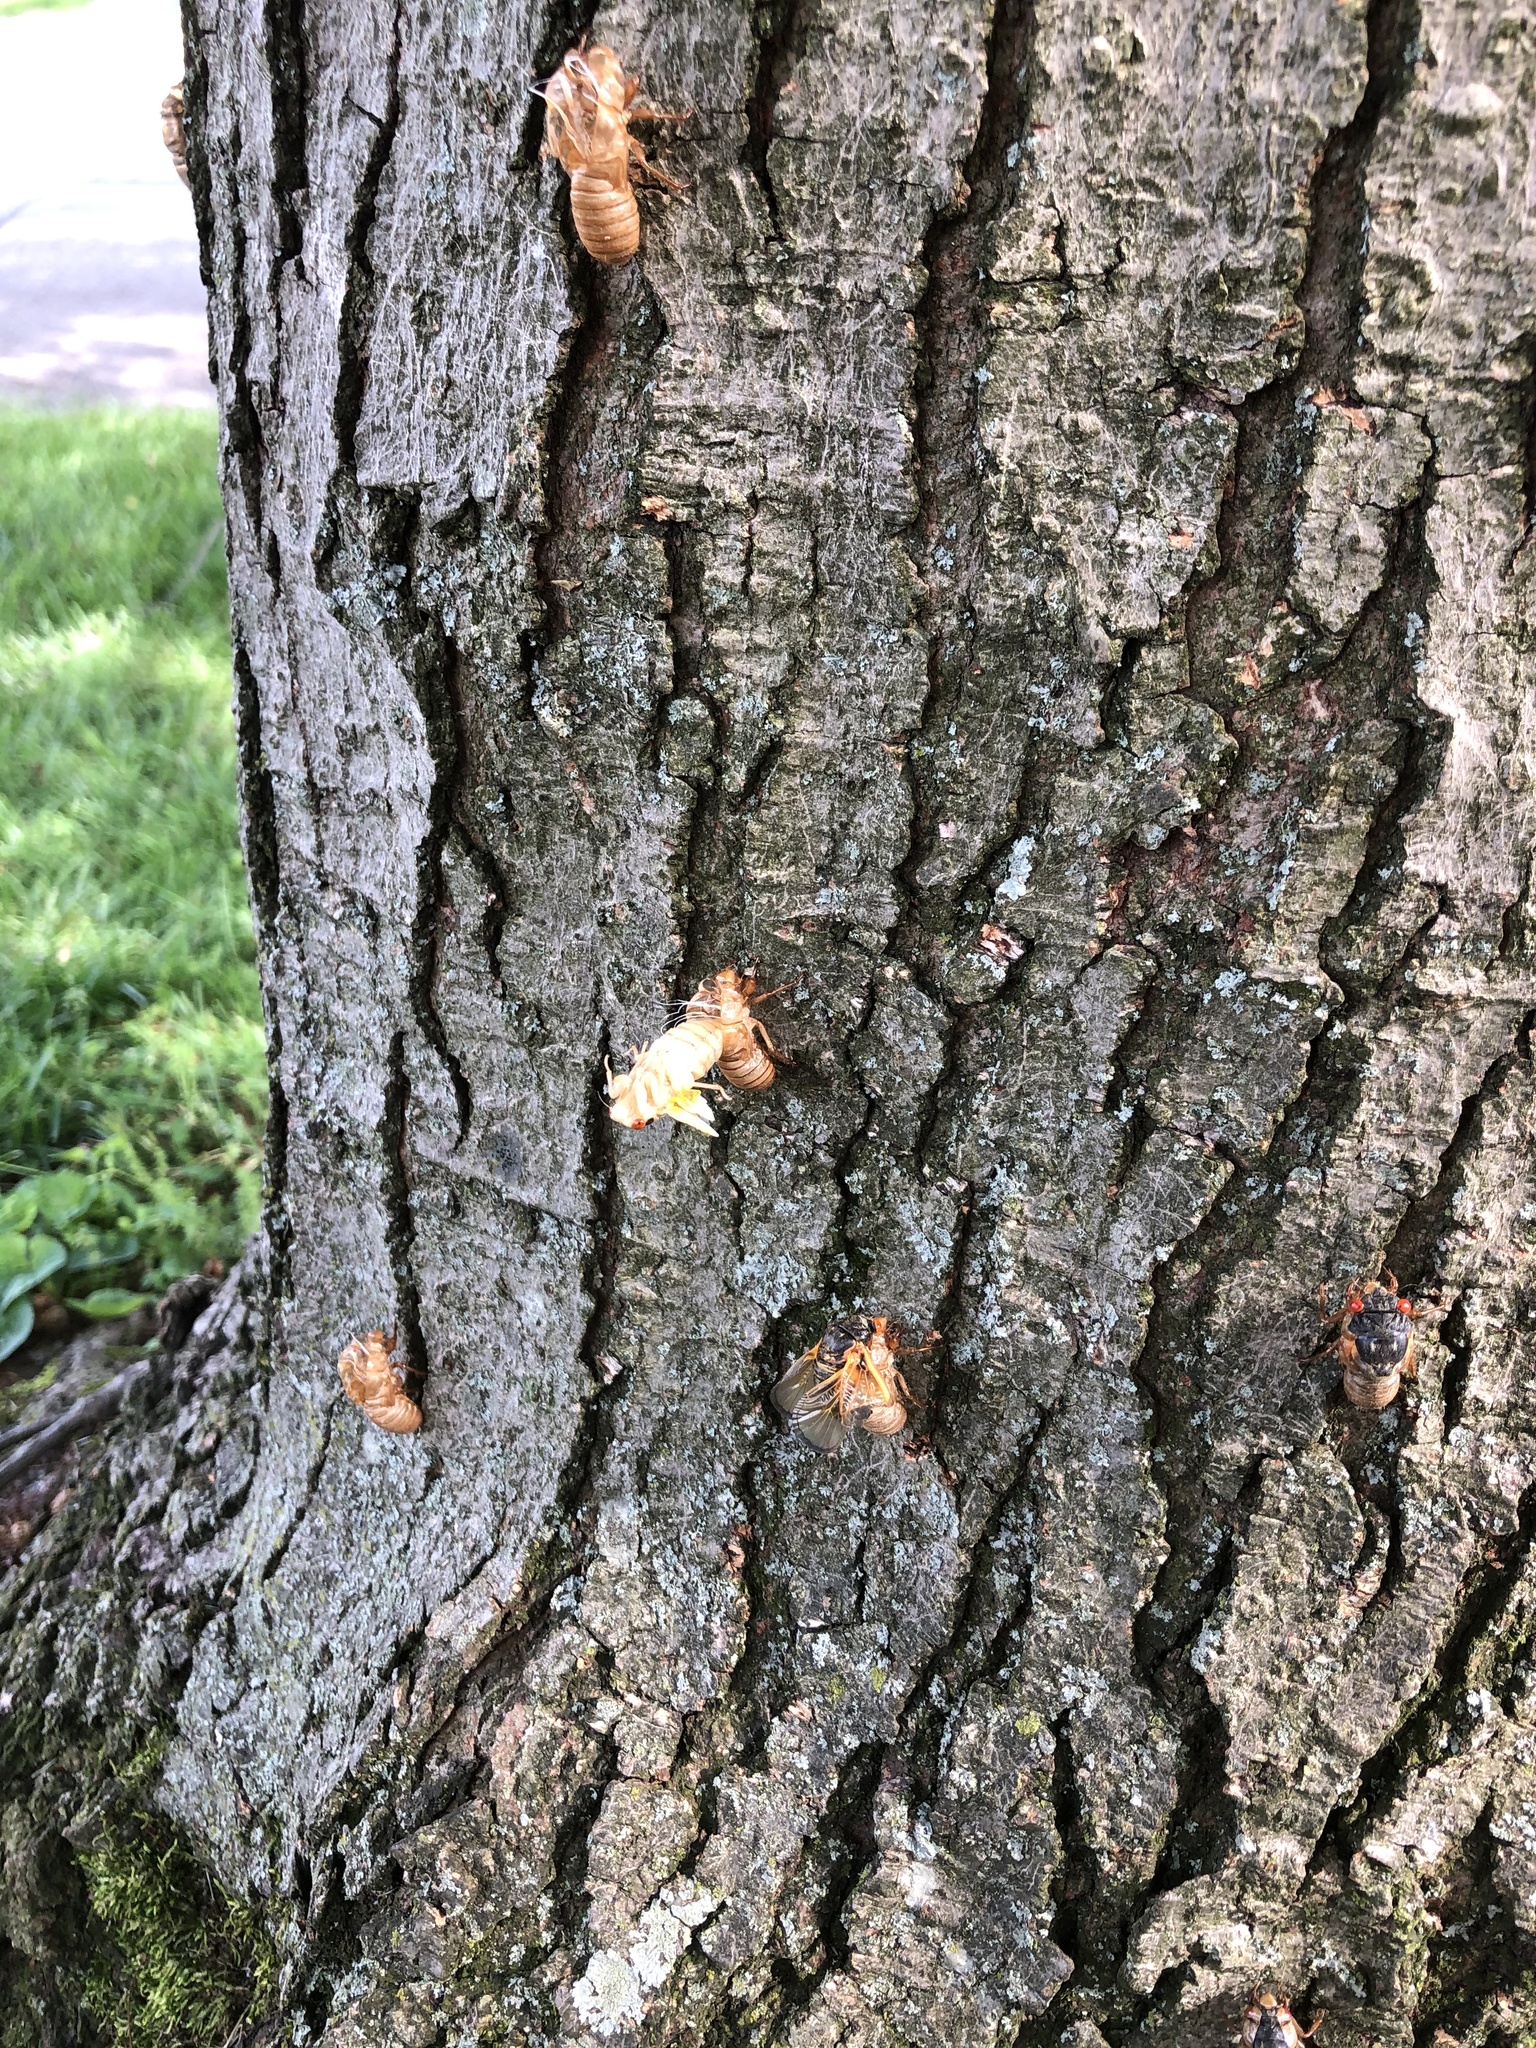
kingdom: Animalia
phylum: Arthropoda
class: Insecta
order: Hemiptera
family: Cicadidae
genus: Magicicada
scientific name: Magicicada
